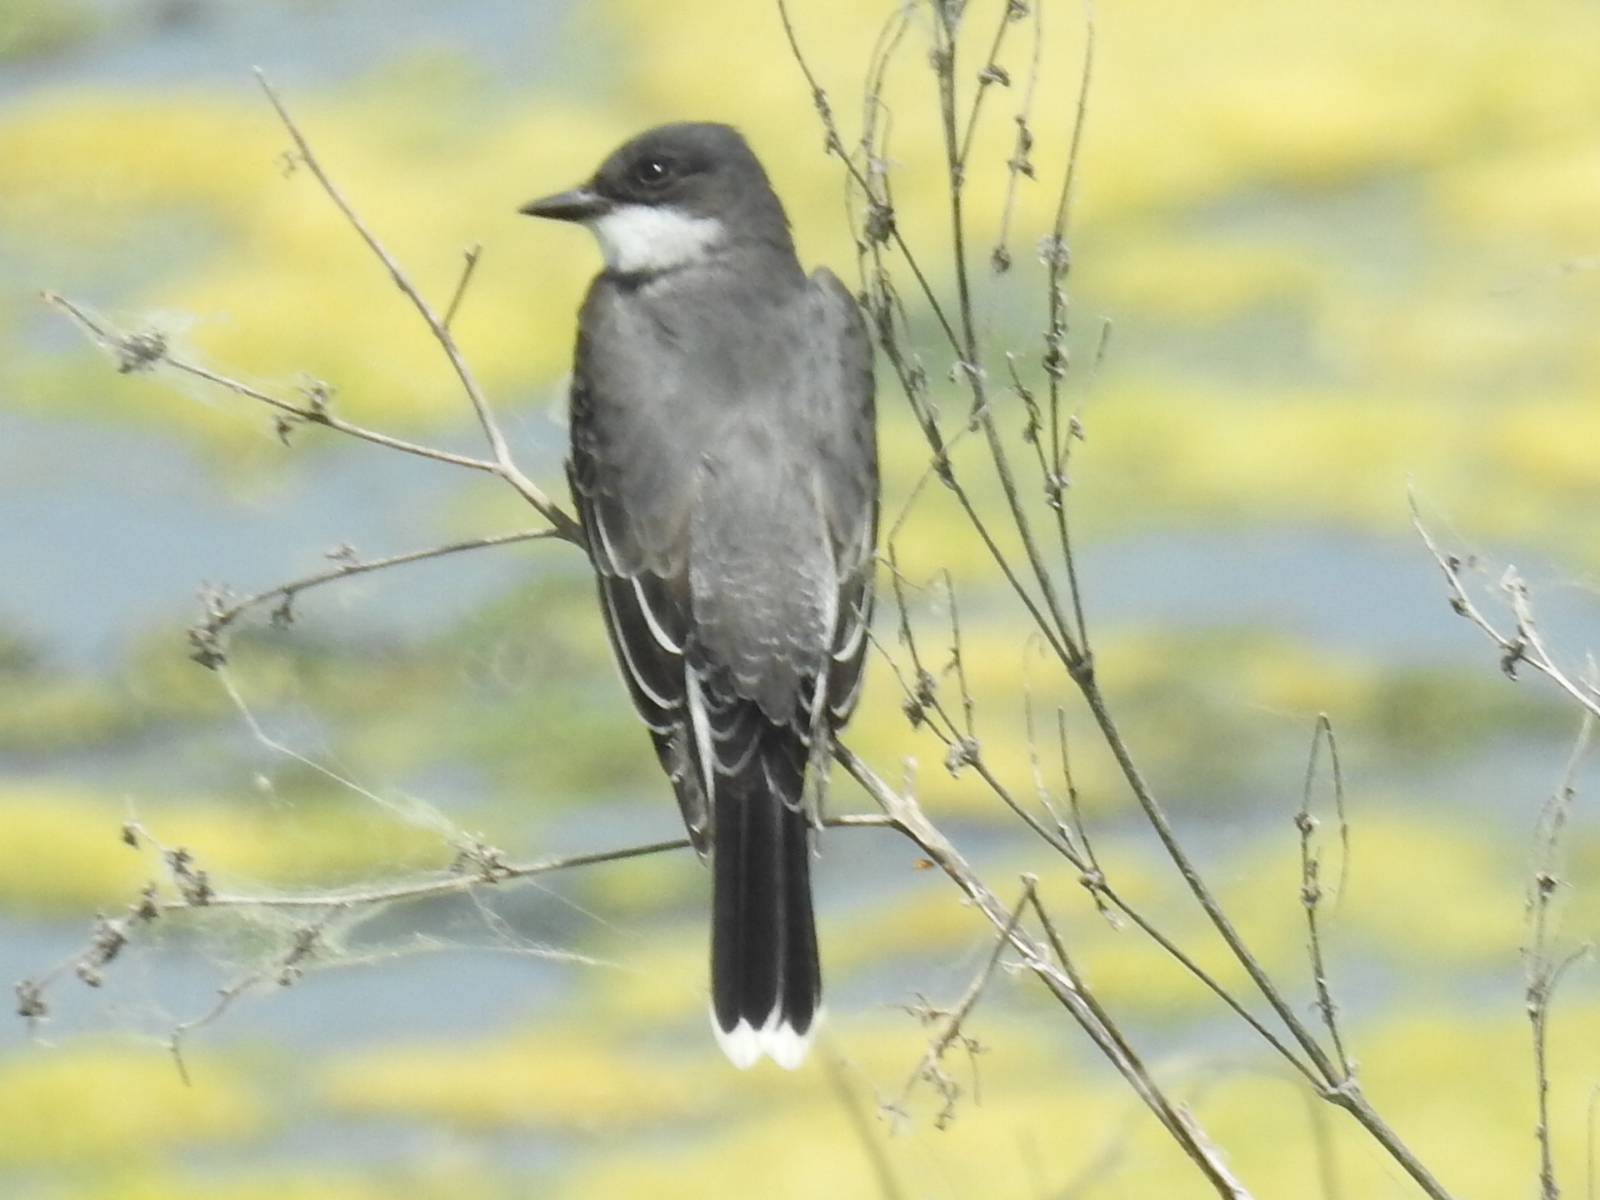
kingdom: Animalia
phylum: Chordata
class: Aves
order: Passeriformes
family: Tyrannidae
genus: Tyrannus
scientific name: Tyrannus tyrannus
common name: Eastern kingbird
